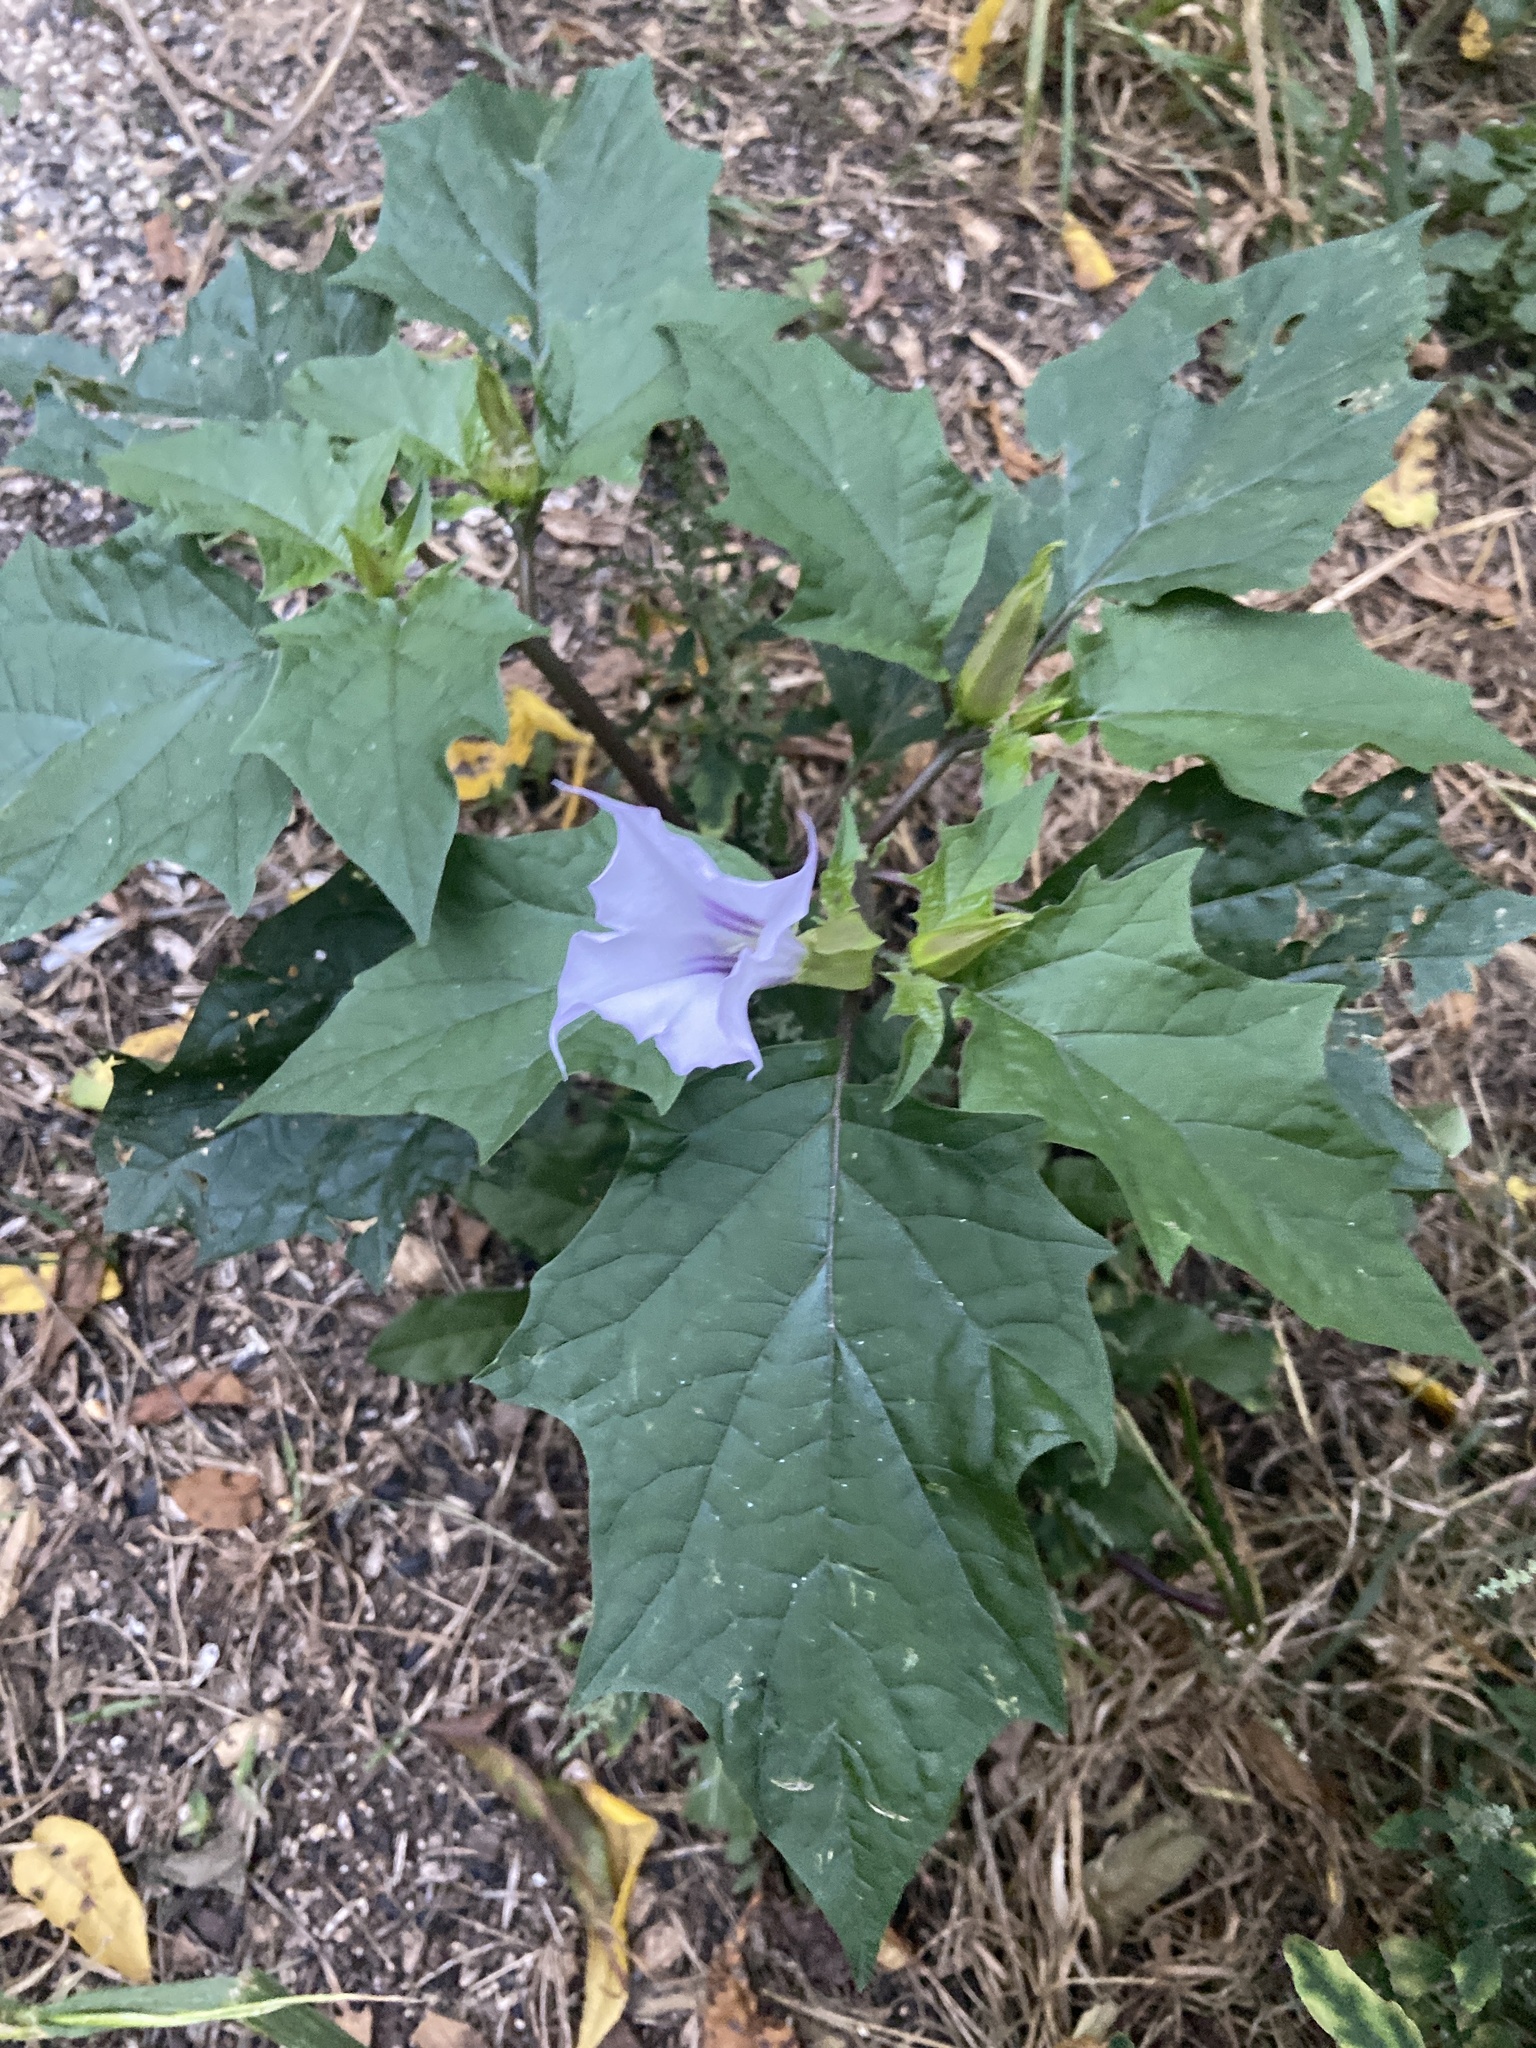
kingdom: Plantae
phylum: Tracheophyta
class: Magnoliopsida
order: Solanales
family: Solanaceae
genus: Datura
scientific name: Datura stramonium
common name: Thorn-apple
